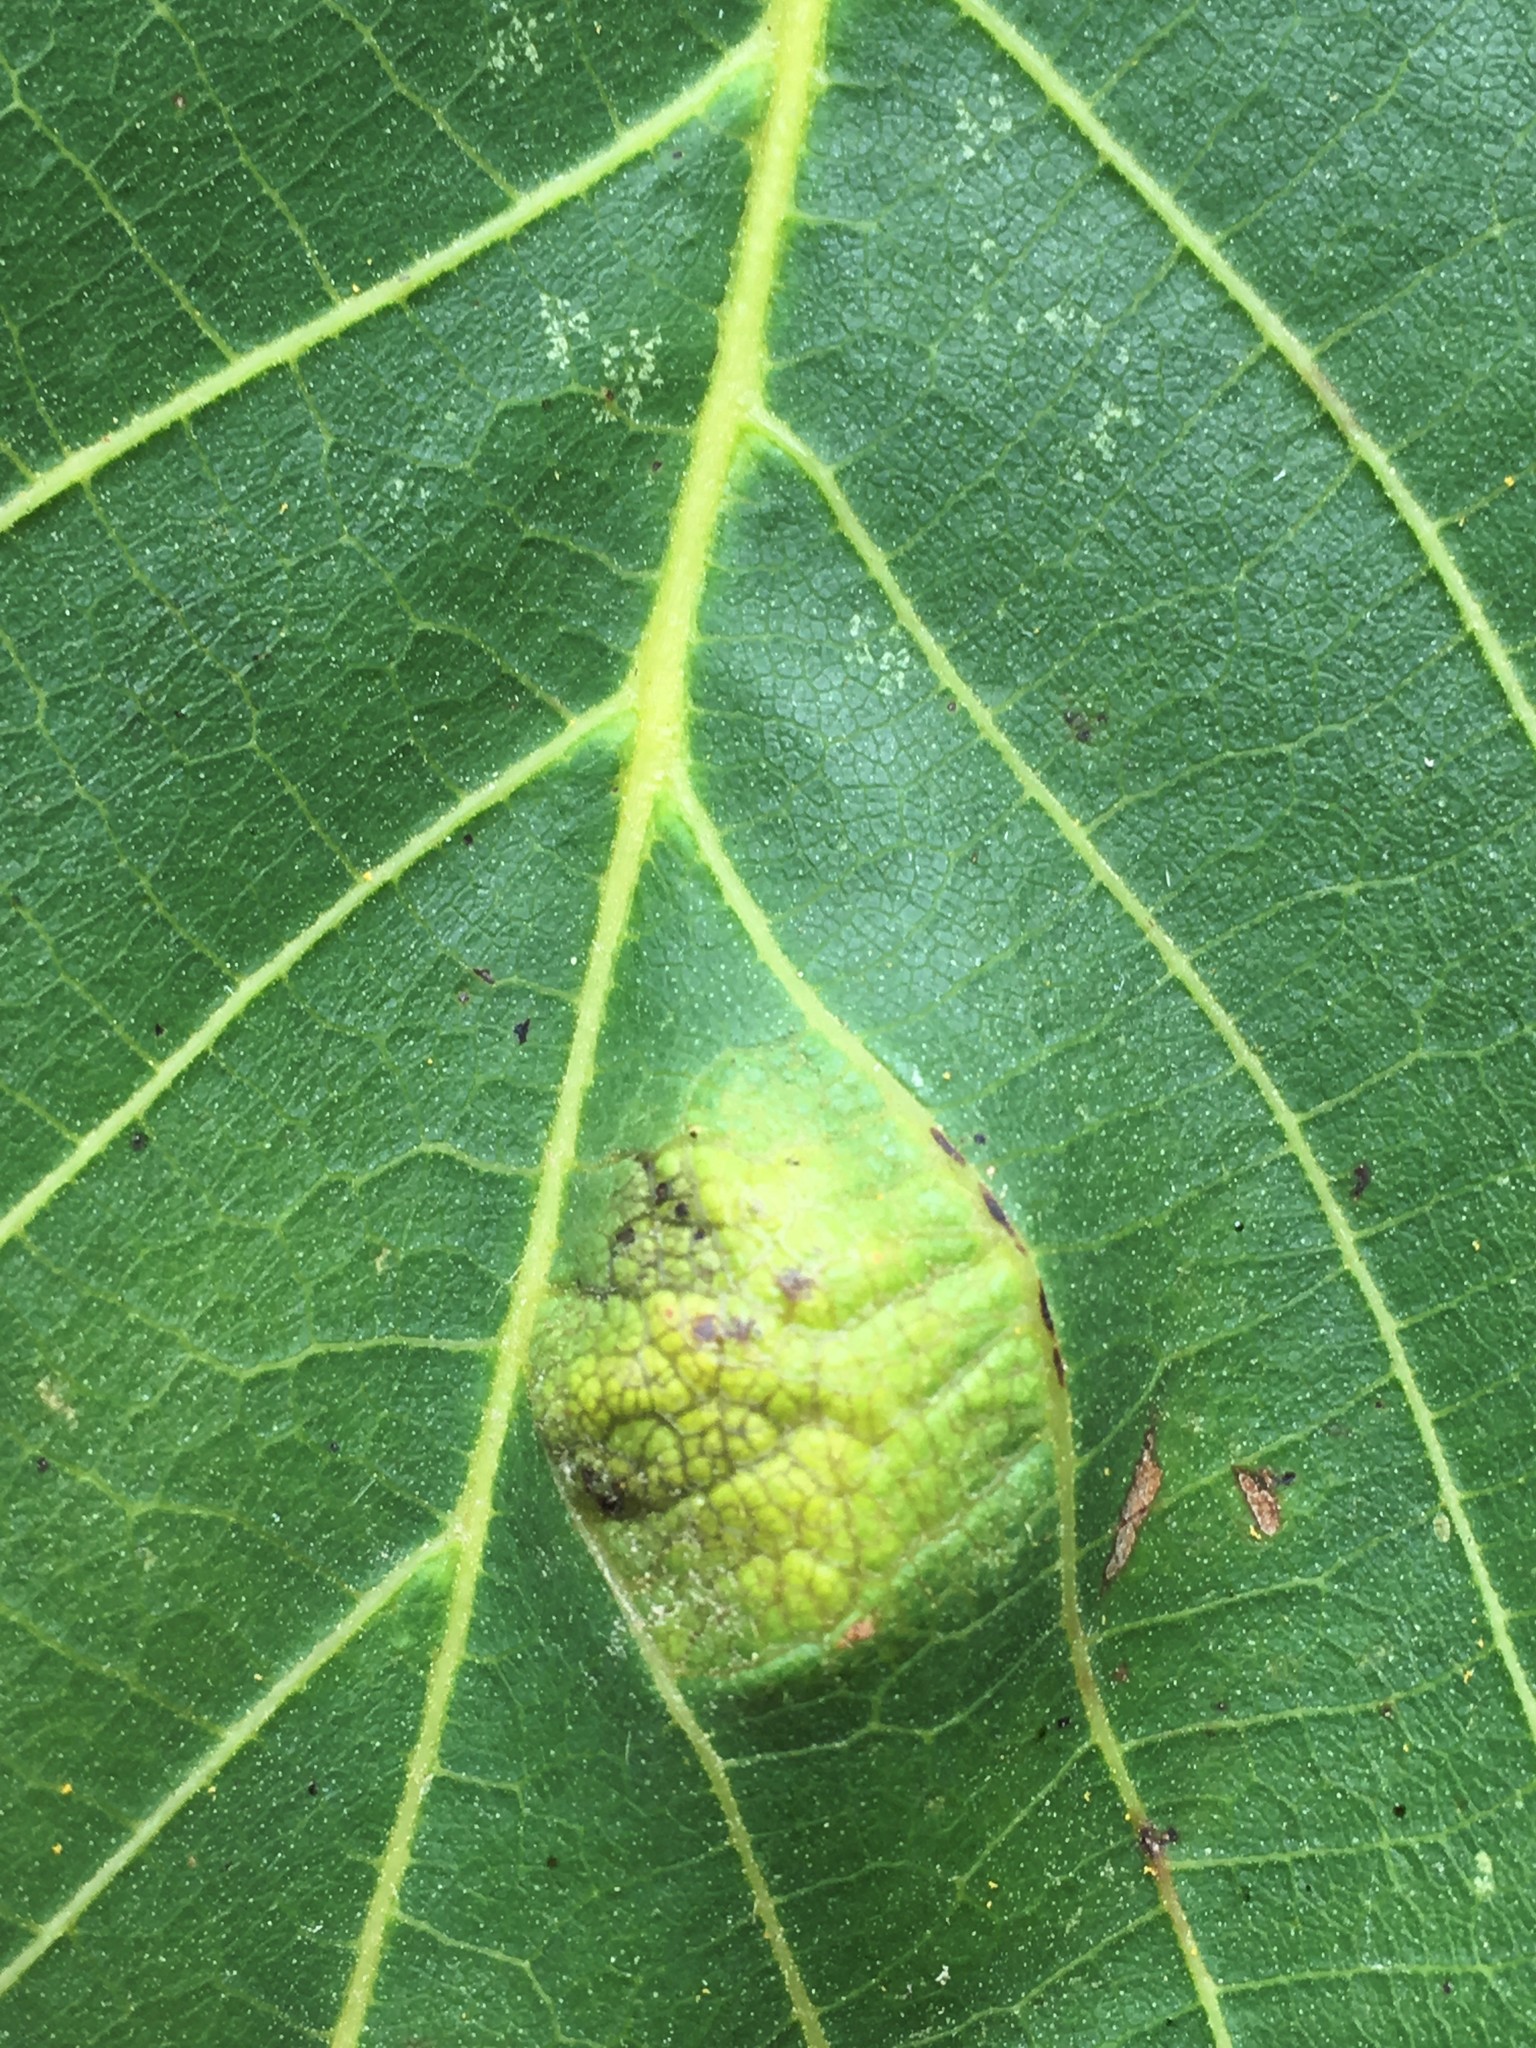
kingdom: Animalia
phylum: Arthropoda
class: Arachnida
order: Trombidiformes
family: Eriophyidae
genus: Aceria
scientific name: Aceria erinea
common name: Persian walnut erineum mite
